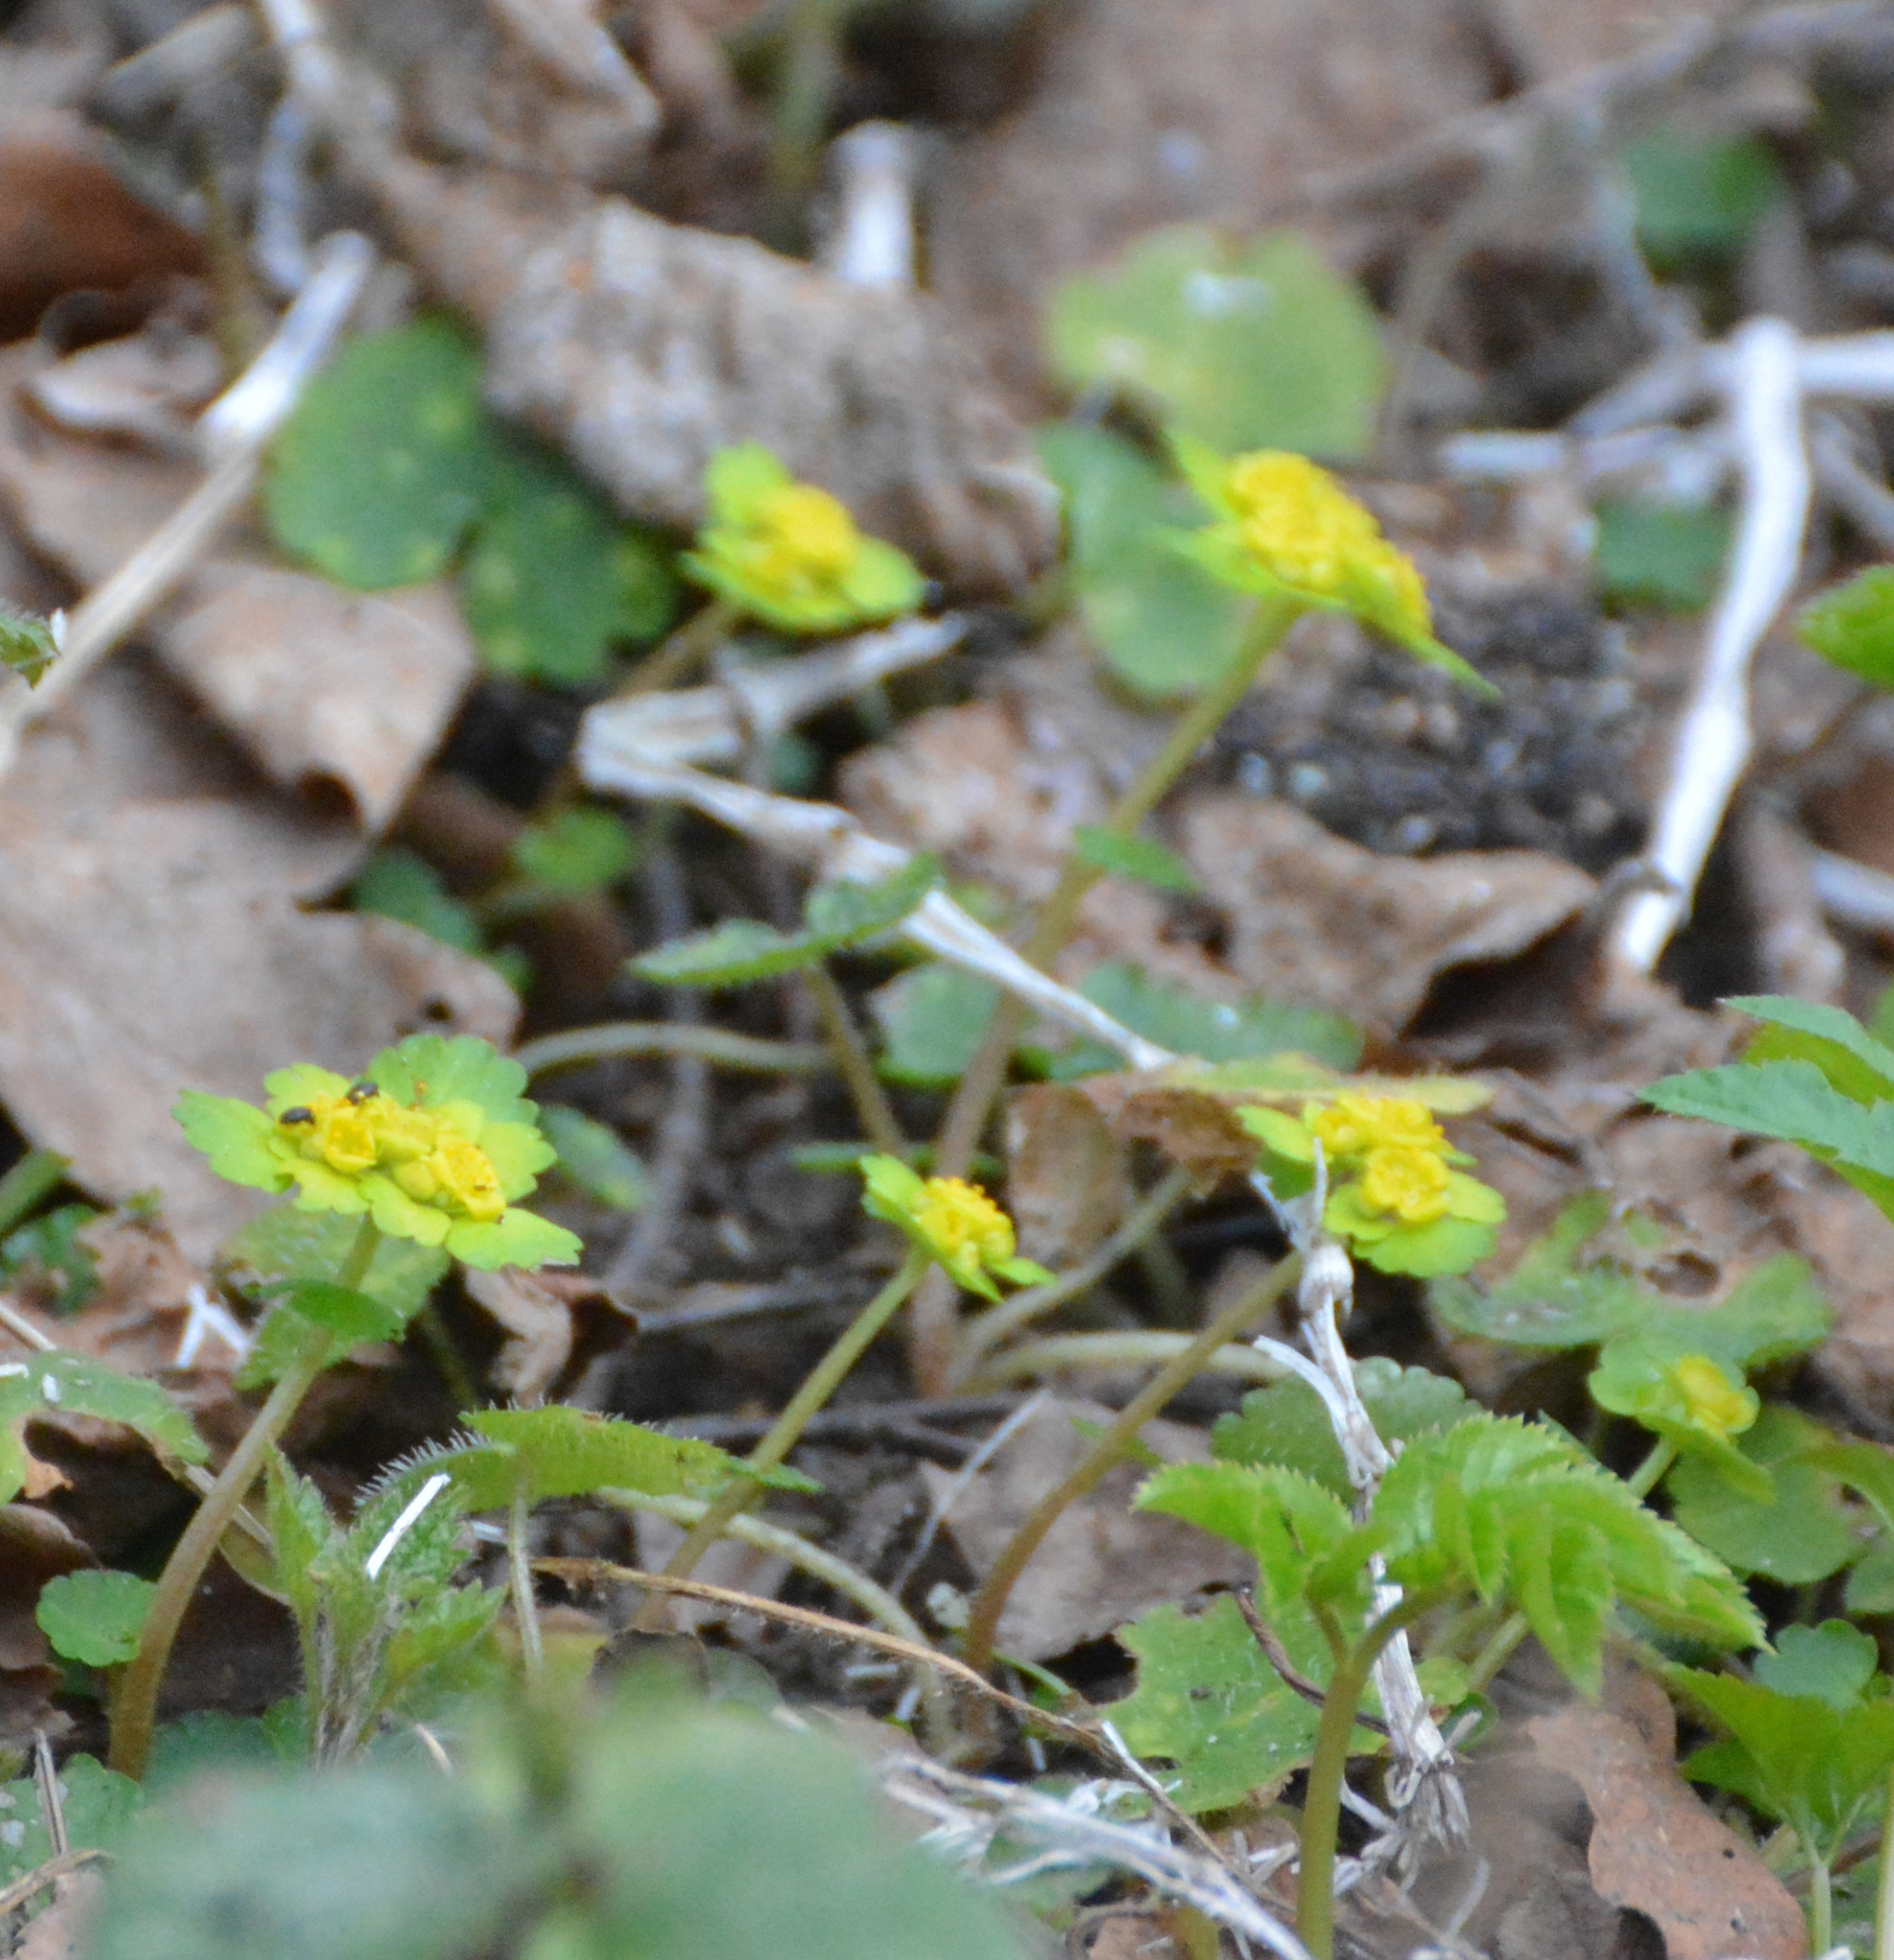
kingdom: Plantae
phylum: Tracheophyta
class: Magnoliopsida
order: Saxifragales
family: Saxifragaceae
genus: Chrysosplenium
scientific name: Chrysosplenium alternifolium
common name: Alternate-leaved golden-saxifrage
